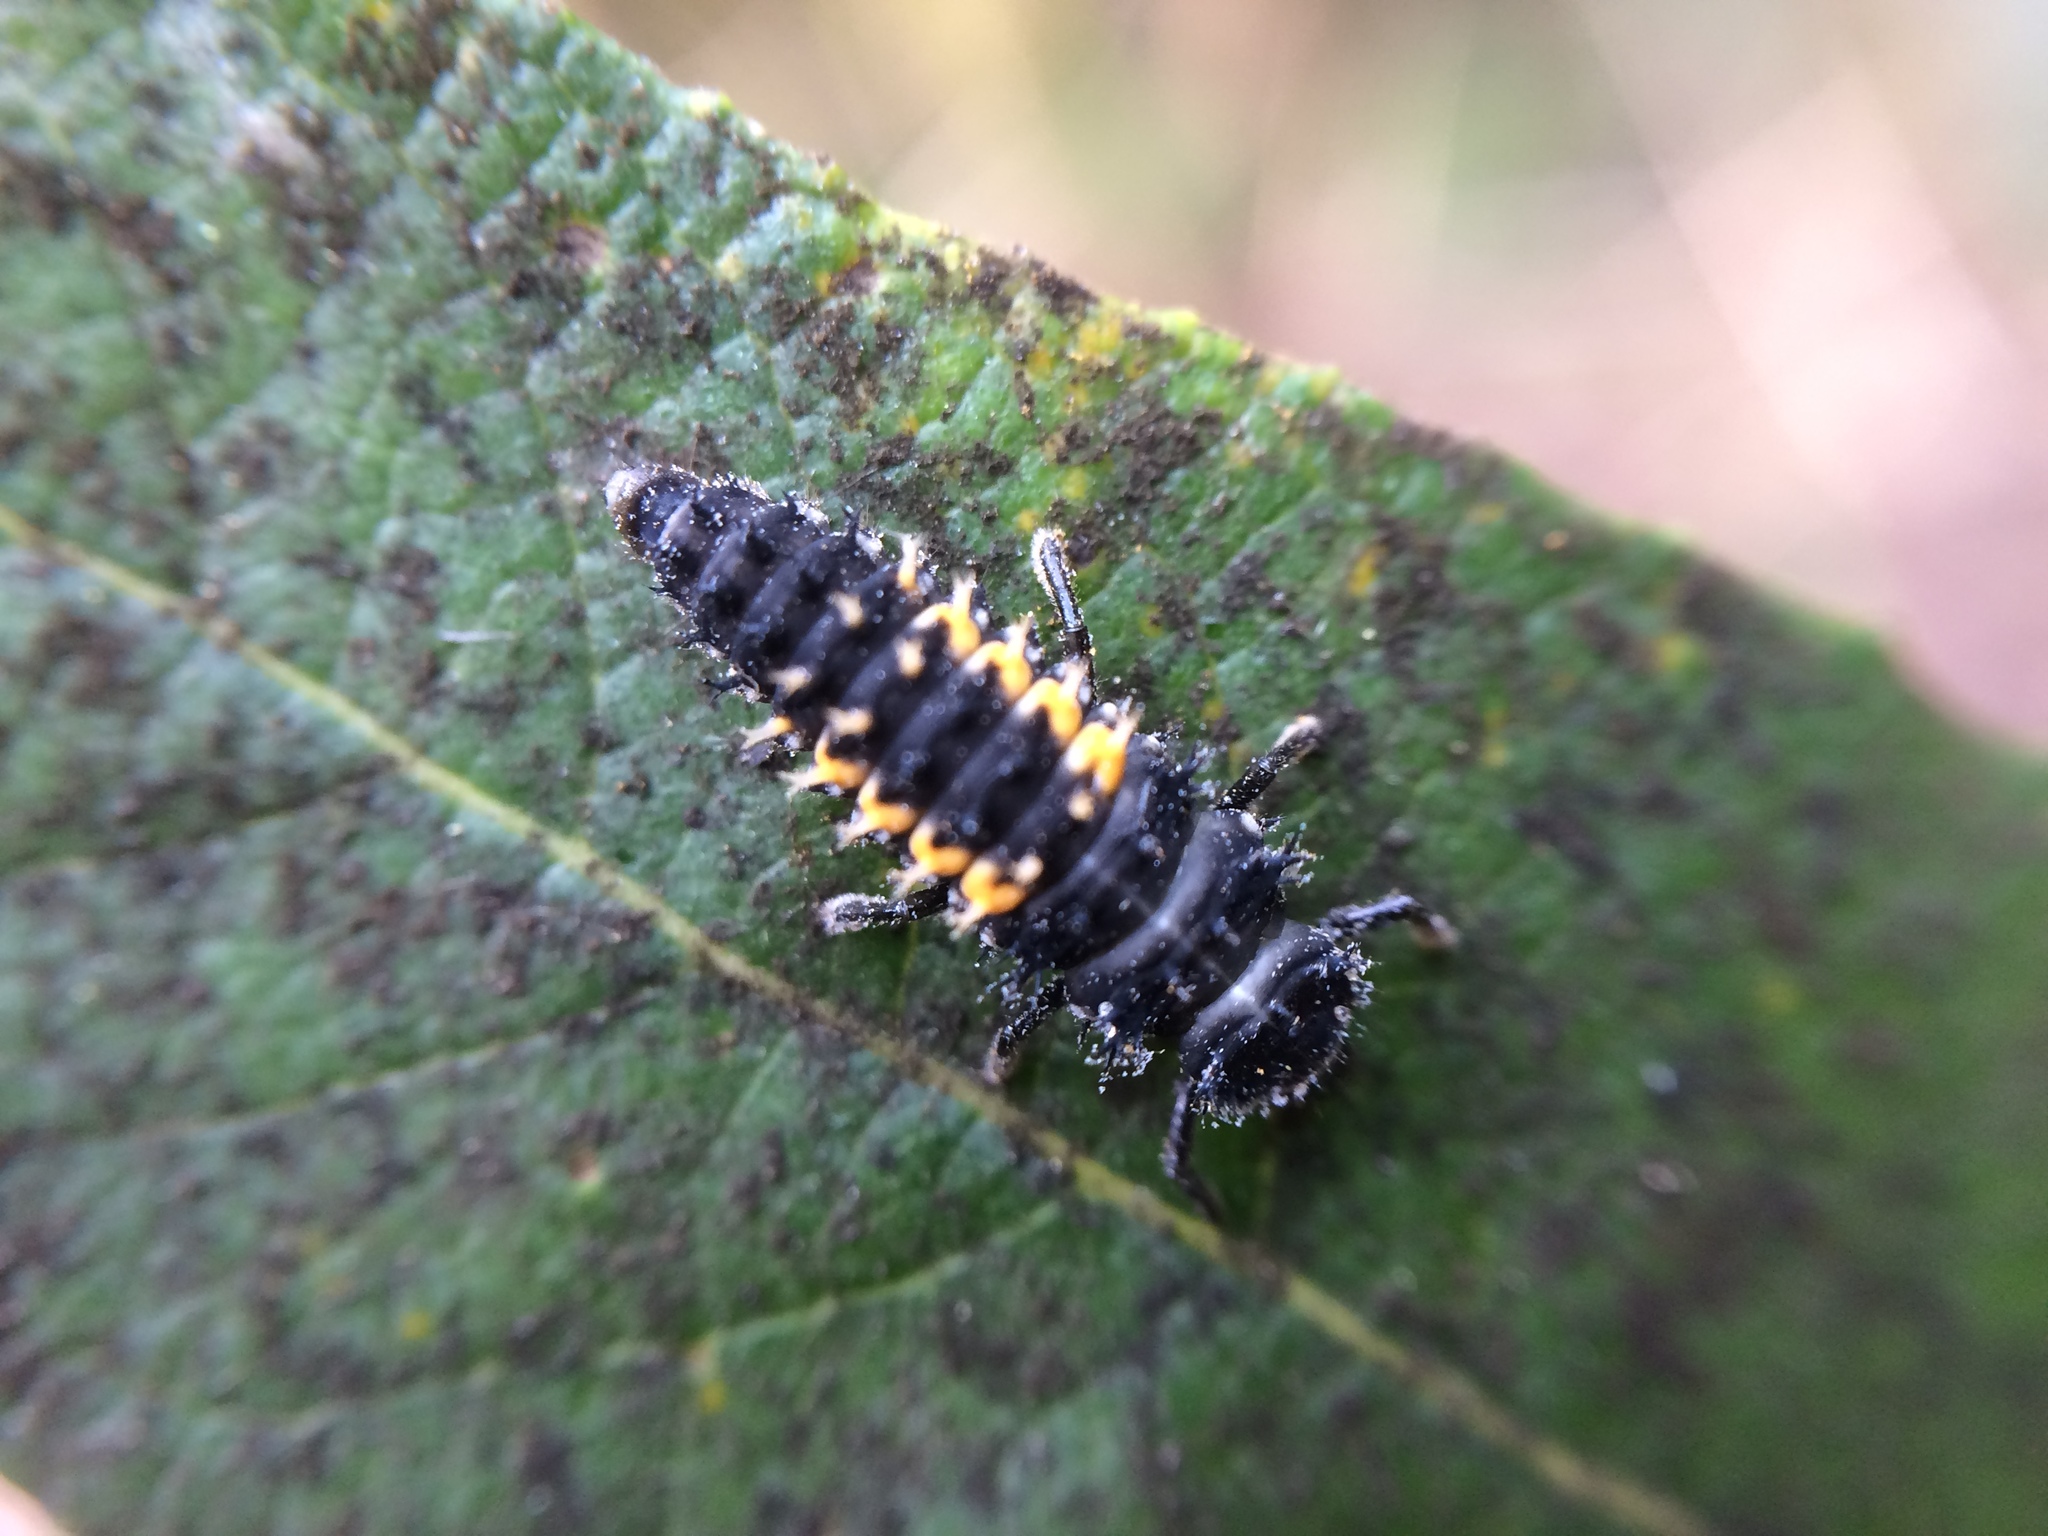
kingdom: Animalia
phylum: Arthropoda
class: Insecta
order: Coleoptera
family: Coccinellidae
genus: Harmonia
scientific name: Harmonia axyridis
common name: Harlequin ladybird
